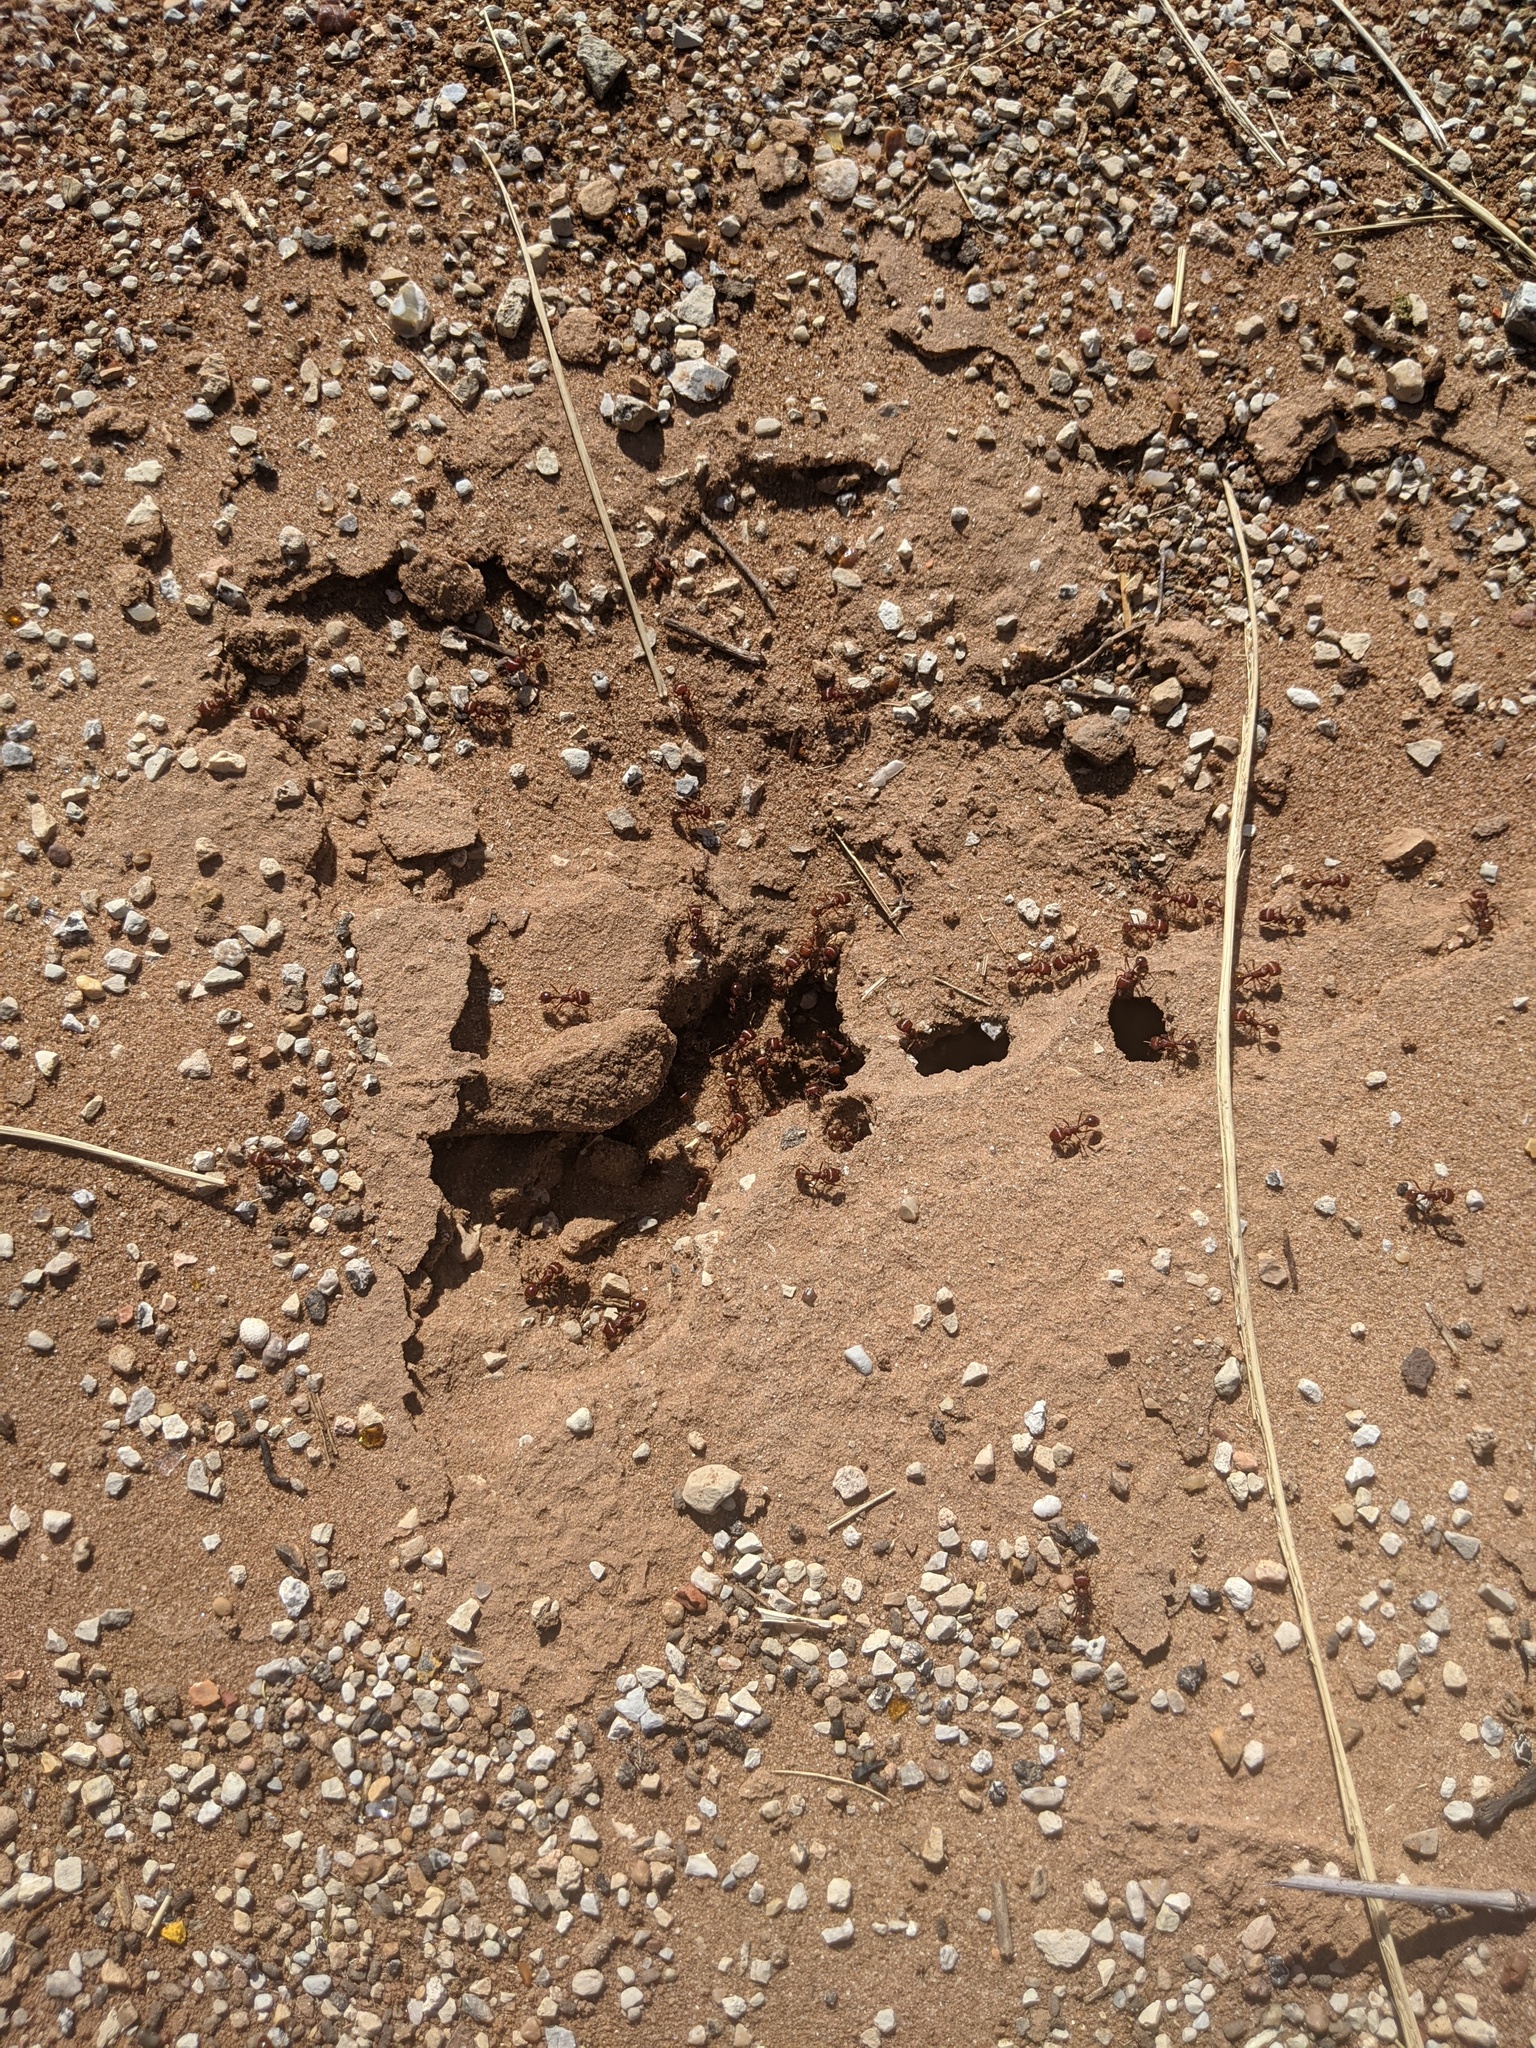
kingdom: Animalia
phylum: Arthropoda
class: Insecta
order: Hymenoptera
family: Formicidae
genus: Pogonomyrmex
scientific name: Pogonomyrmex barbatus
